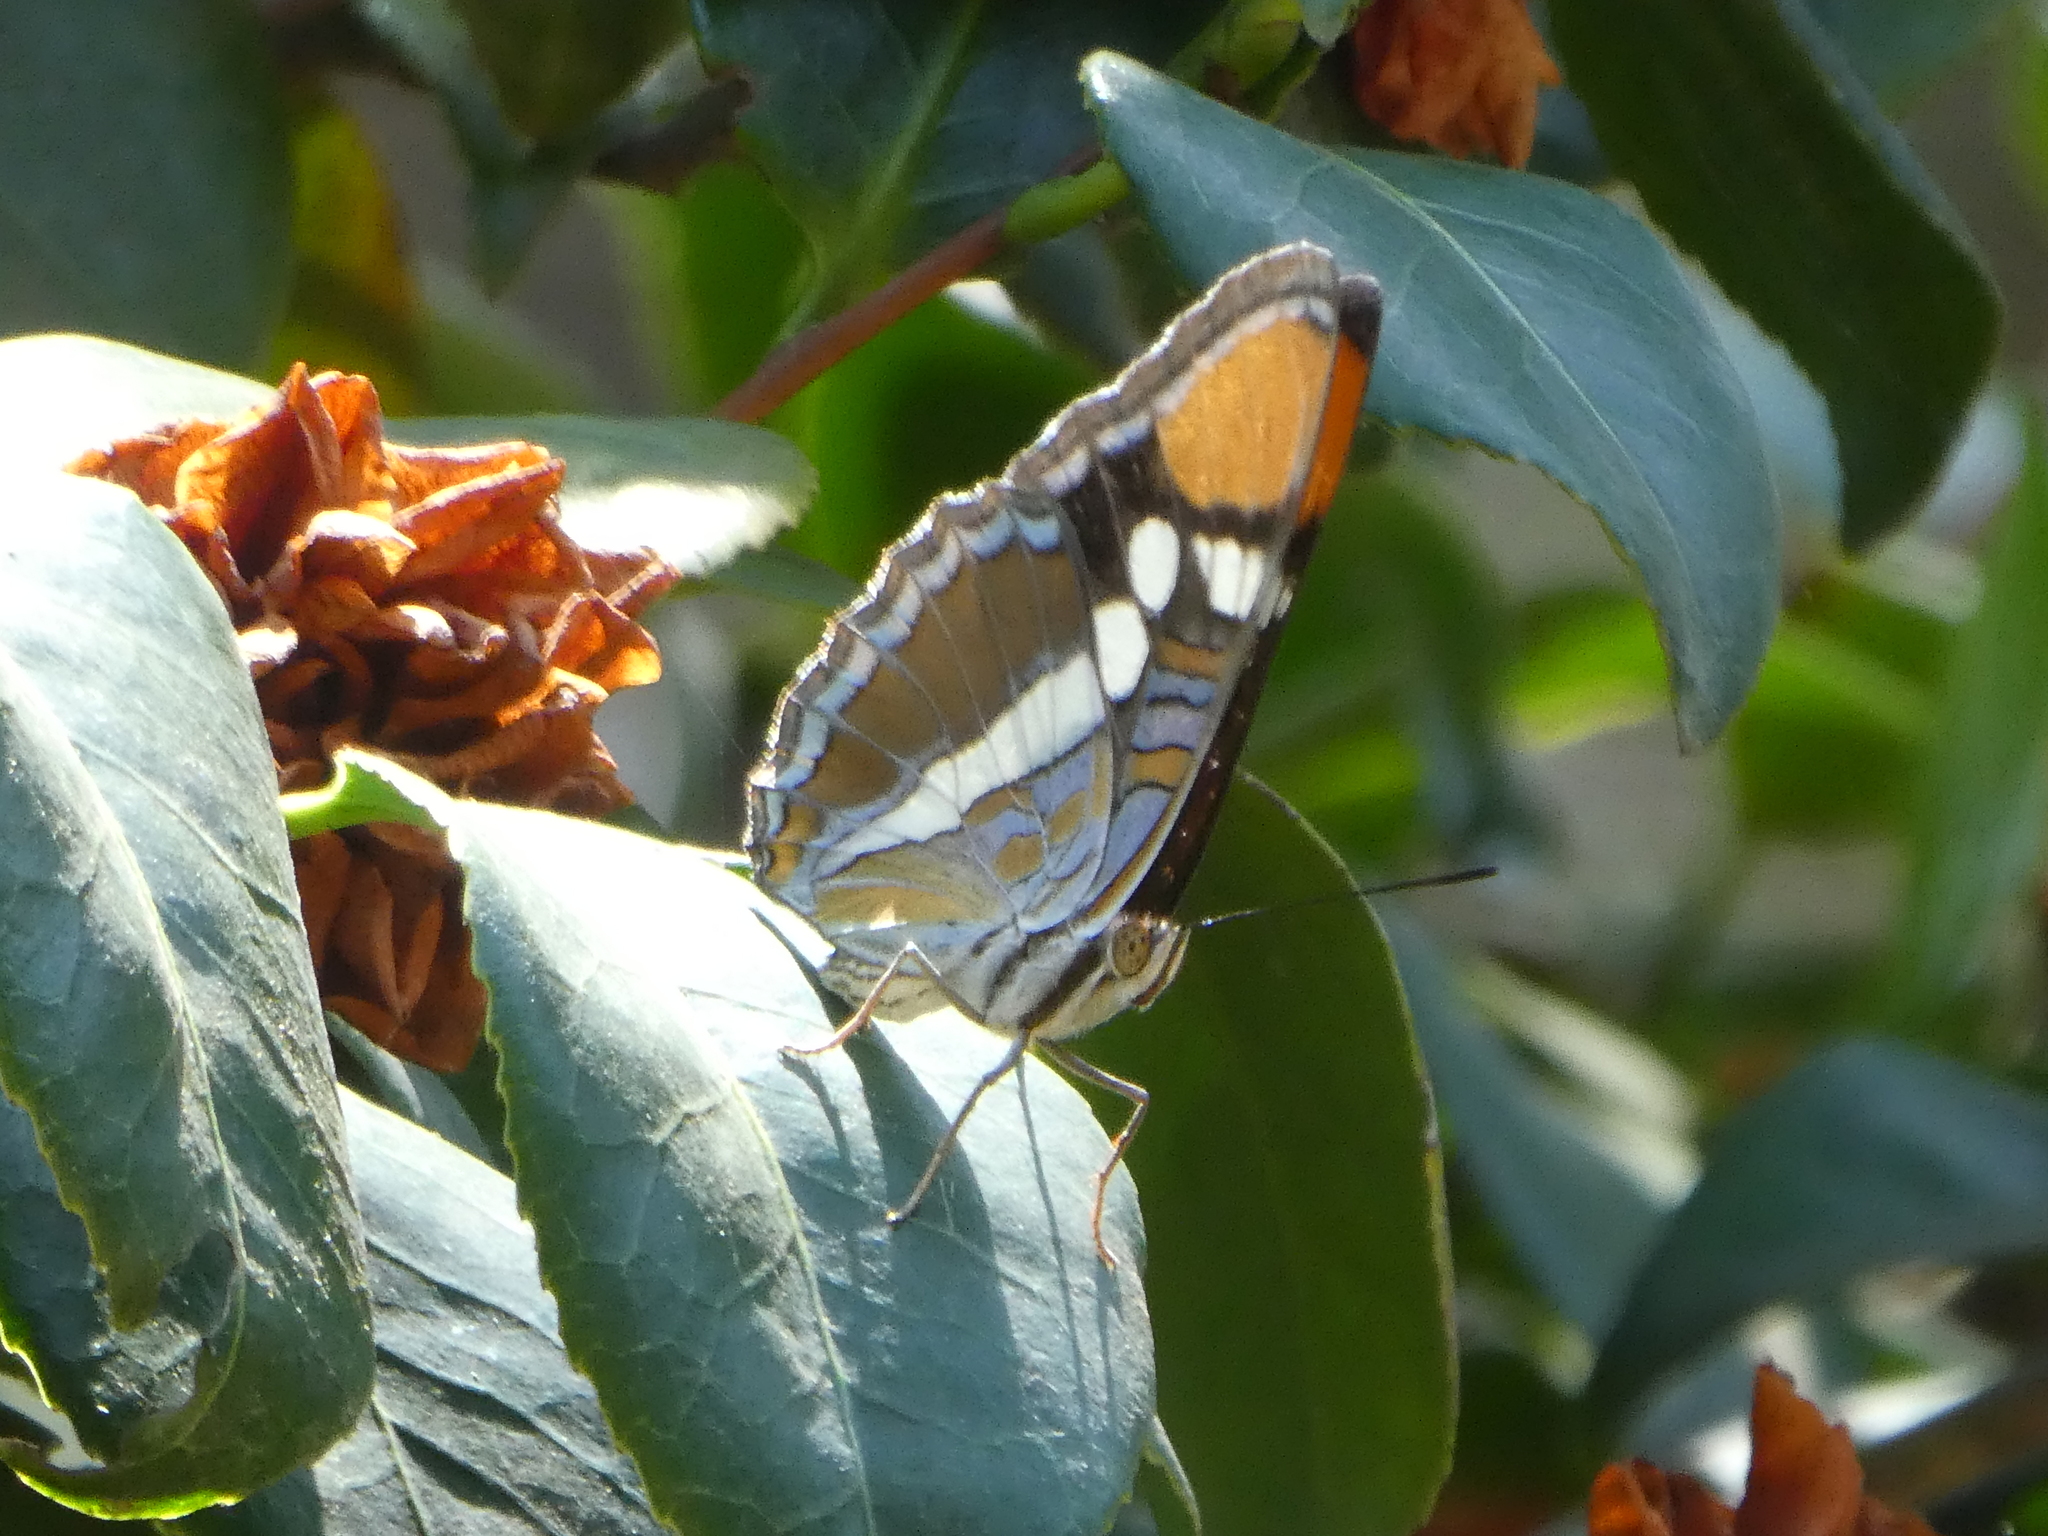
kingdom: Animalia
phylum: Arthropoda
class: Insecta
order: Lepidoptera
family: Nymphalidae
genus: Limenitis
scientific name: Limenitis bredowii
